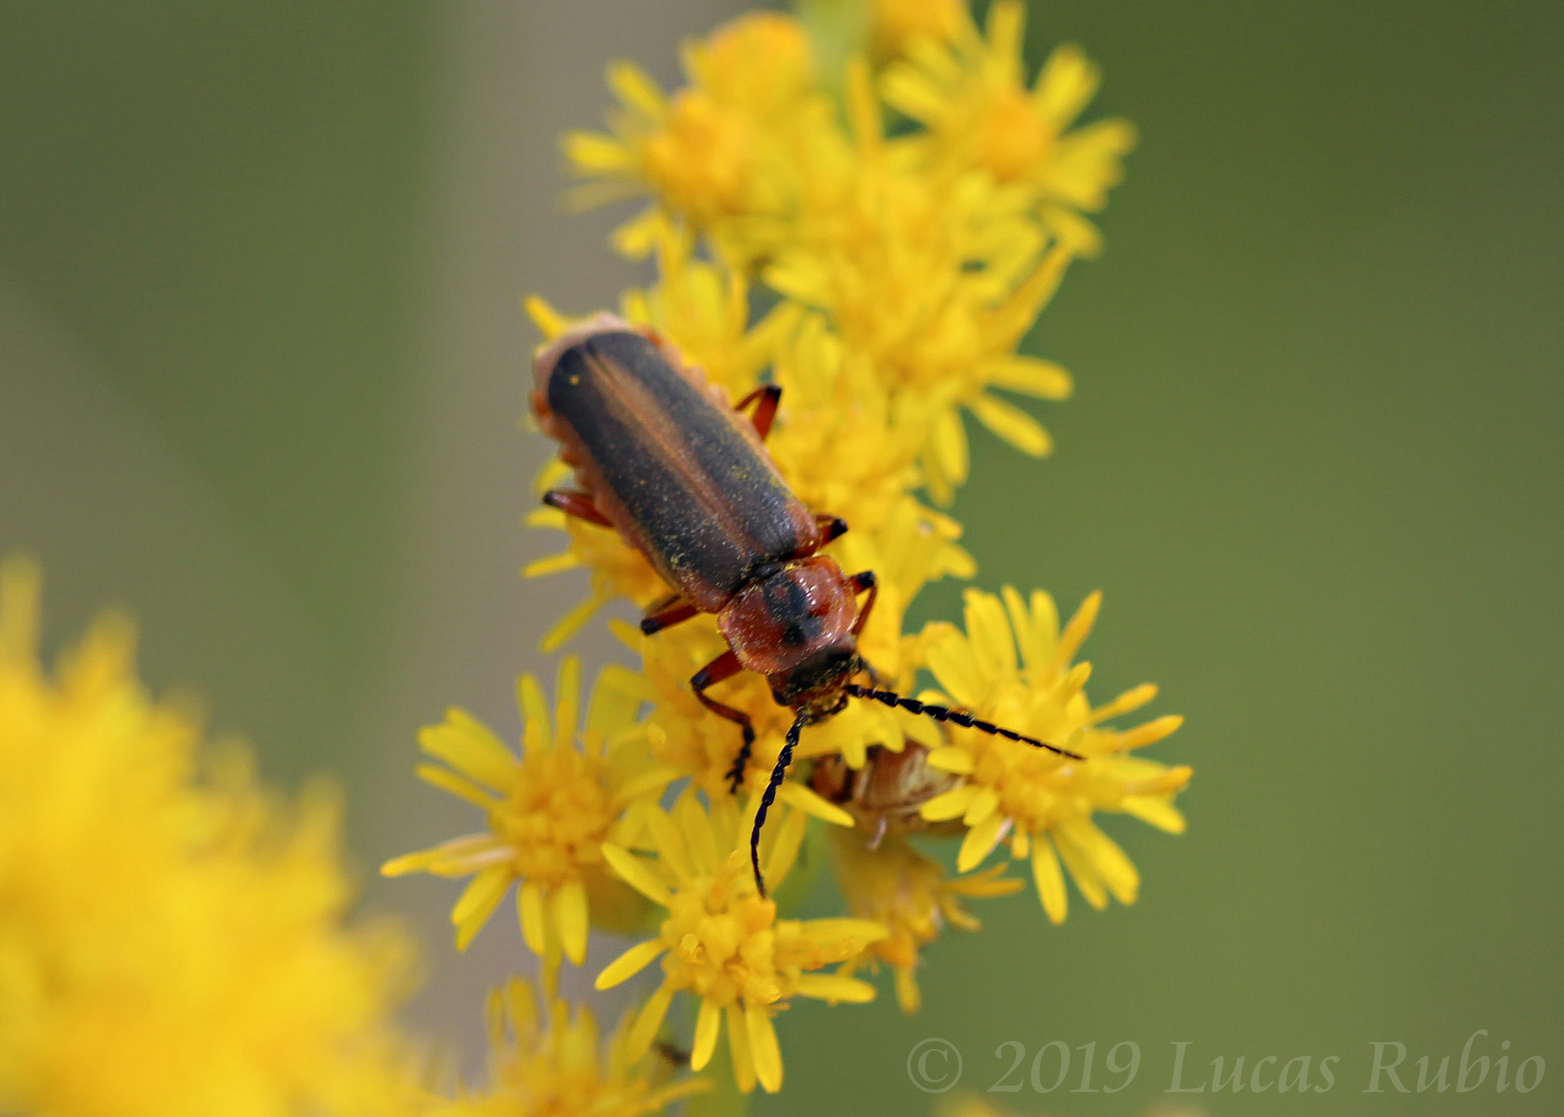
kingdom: Animalia
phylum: Arthropoda
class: Insecta
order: Coleoptera
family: Cantharidae
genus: Discodon
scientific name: Discodon
